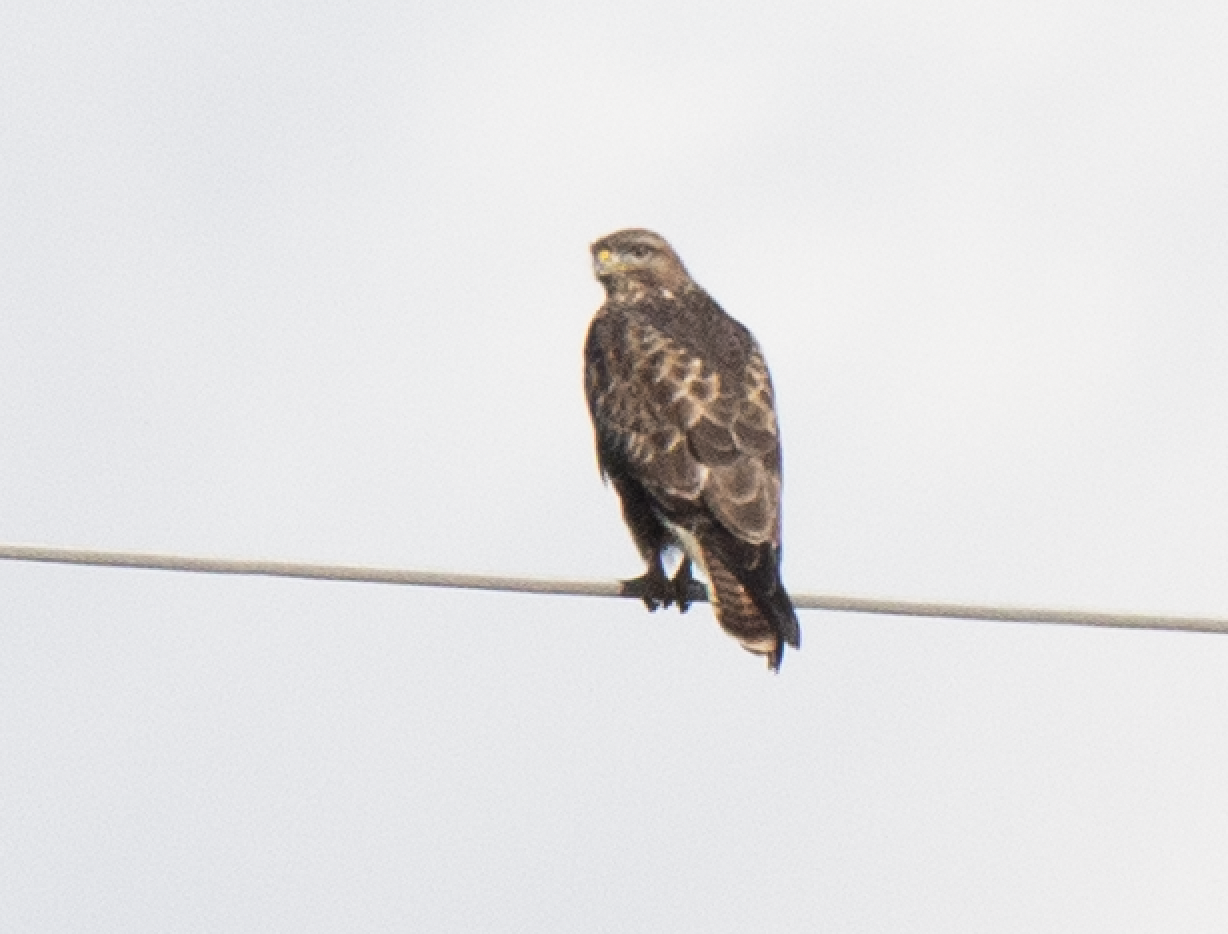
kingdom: Animalia
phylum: Chordata
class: Aves
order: Accipitriformes
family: Accipitridae
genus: Buteo
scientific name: Buteo buteo
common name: Common buzzard
